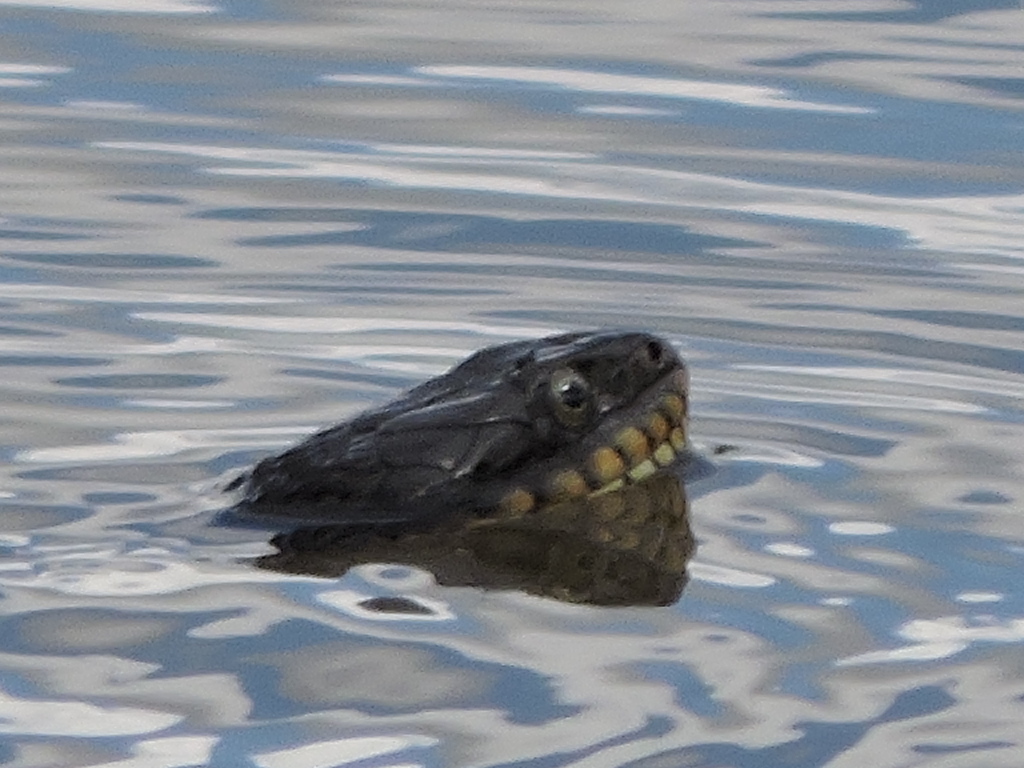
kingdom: Animalia
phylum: Chordata
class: Squamata
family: Colubridae
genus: Nerodia
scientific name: Nerodia erythrogaster
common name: Plainbelly water snake
